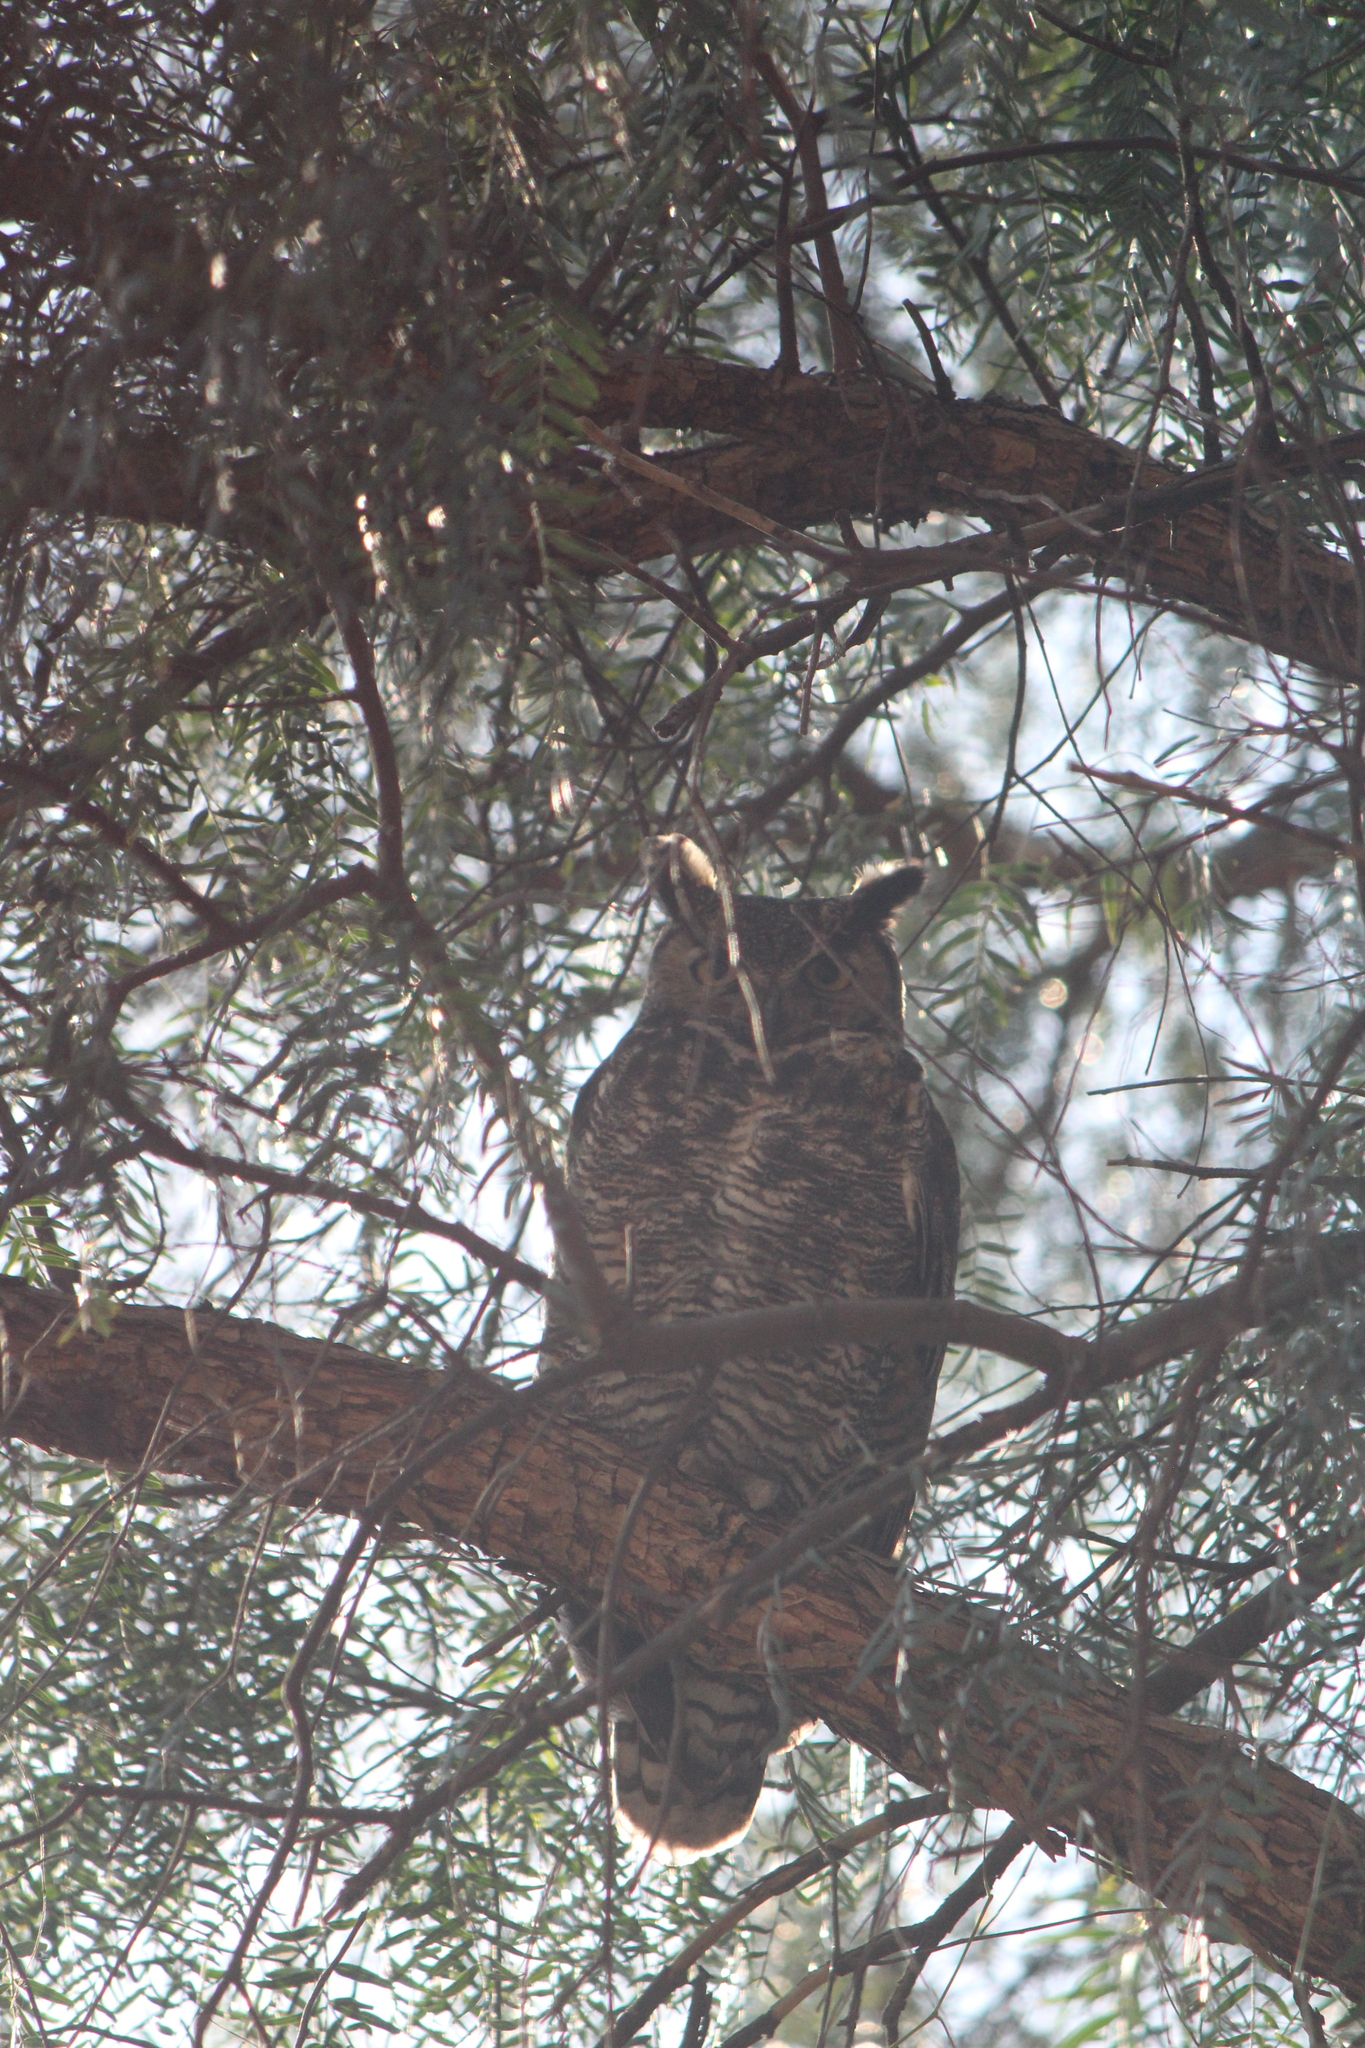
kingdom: Animalia
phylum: Chordata
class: Aves
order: Strigiformes
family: Strigidae
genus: Bubo
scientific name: Bubo virginianus
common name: Great horned owl
